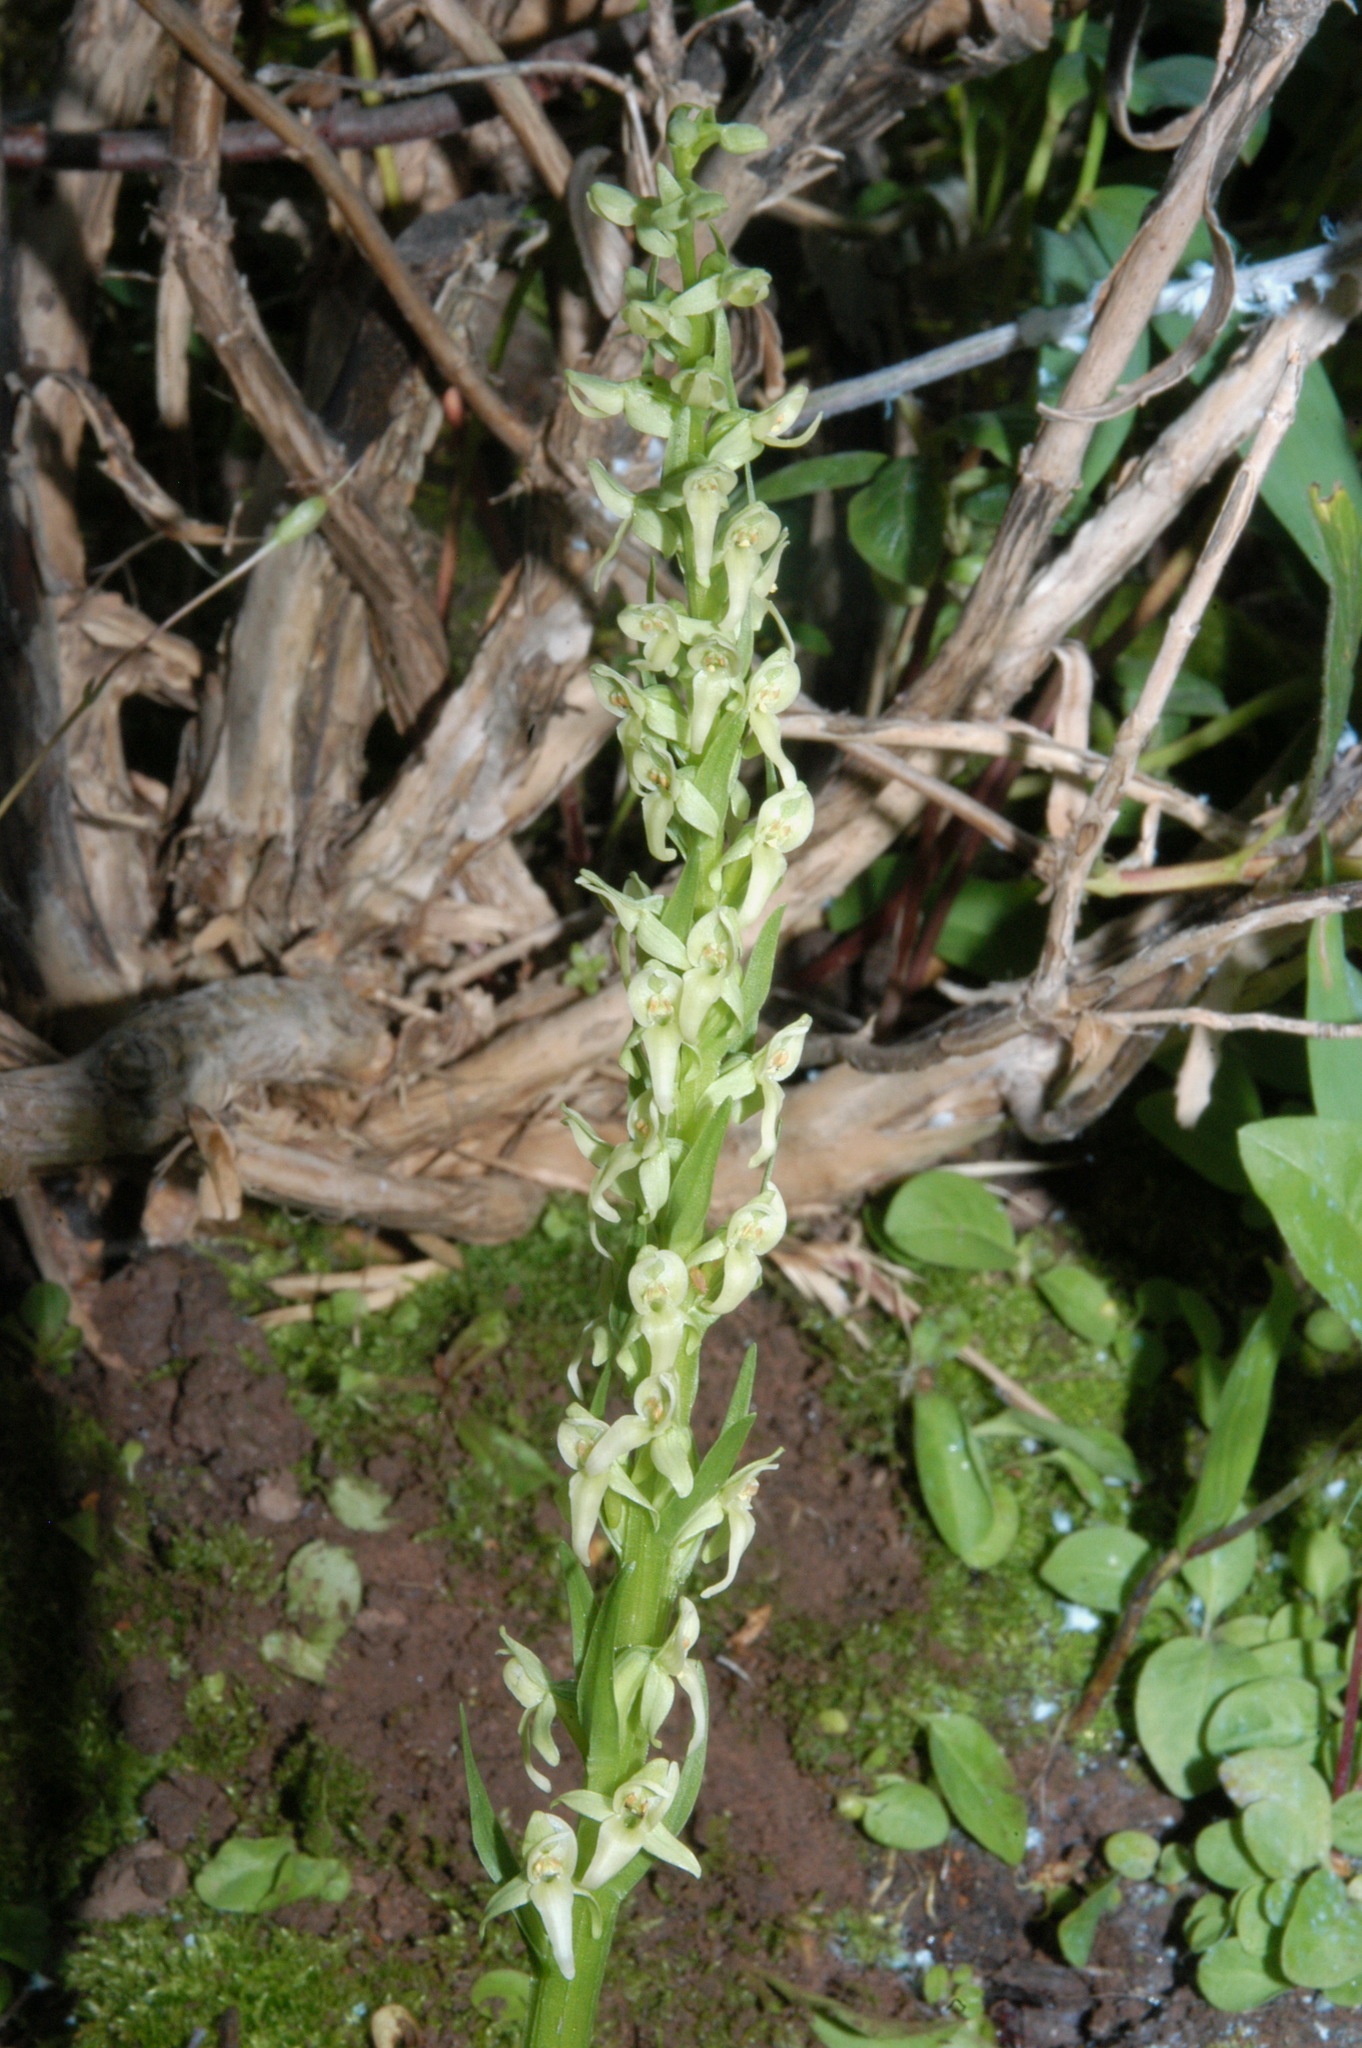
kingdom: Plantae
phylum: Tracheophyta
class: Liliopsida
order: Asparagales
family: Orchidaceae
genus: Platanthera
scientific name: Platanthera huronensis
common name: Fragrant green orchid
